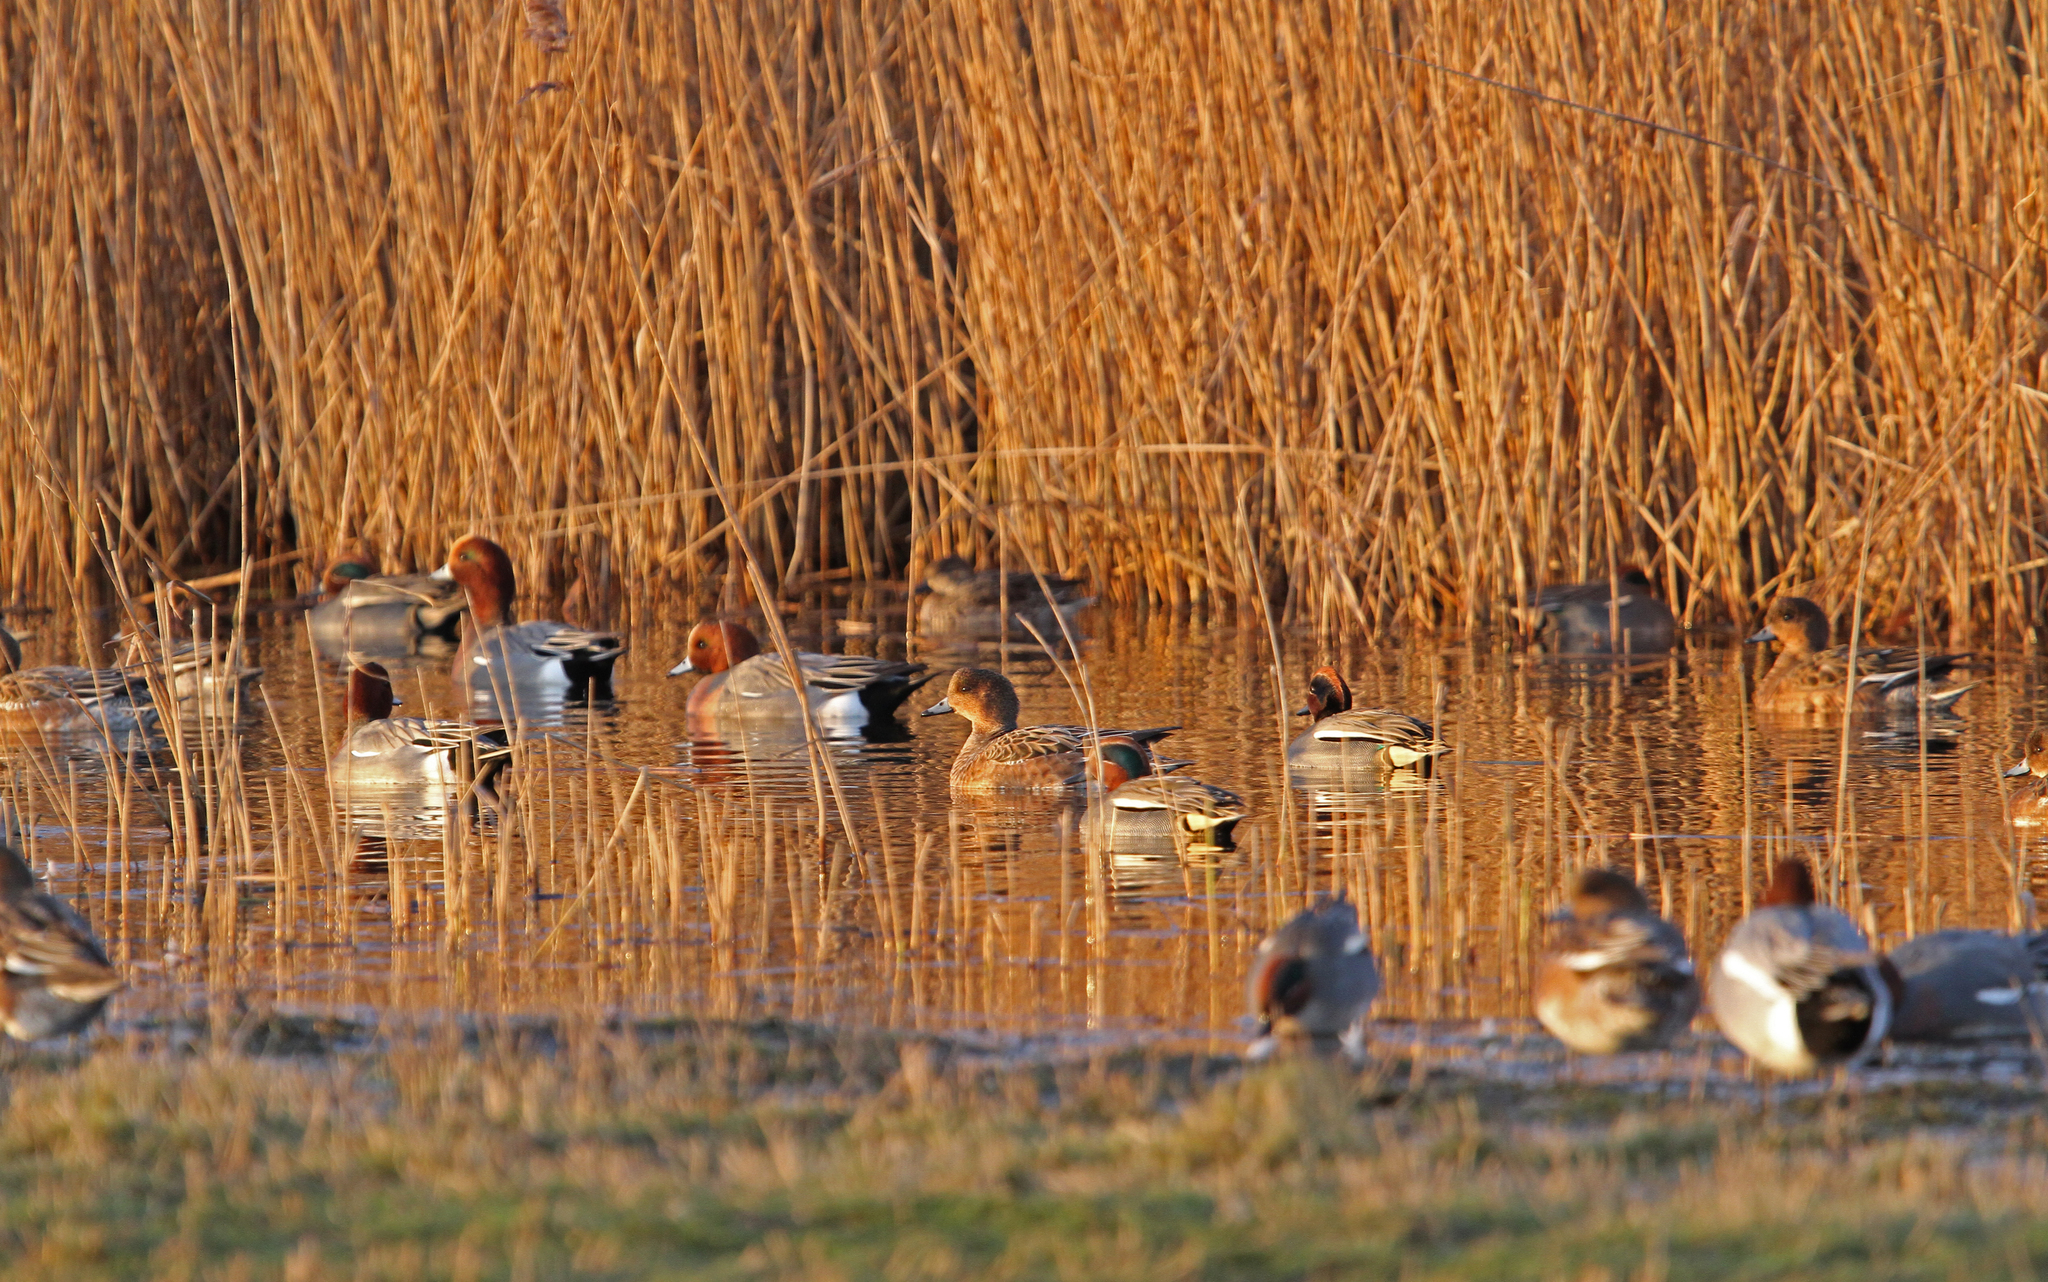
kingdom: Animalia
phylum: Chordata
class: Aves
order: Anseriformes
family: Anatidae
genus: Anas
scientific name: Anas crecca
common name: Eurasian teal
